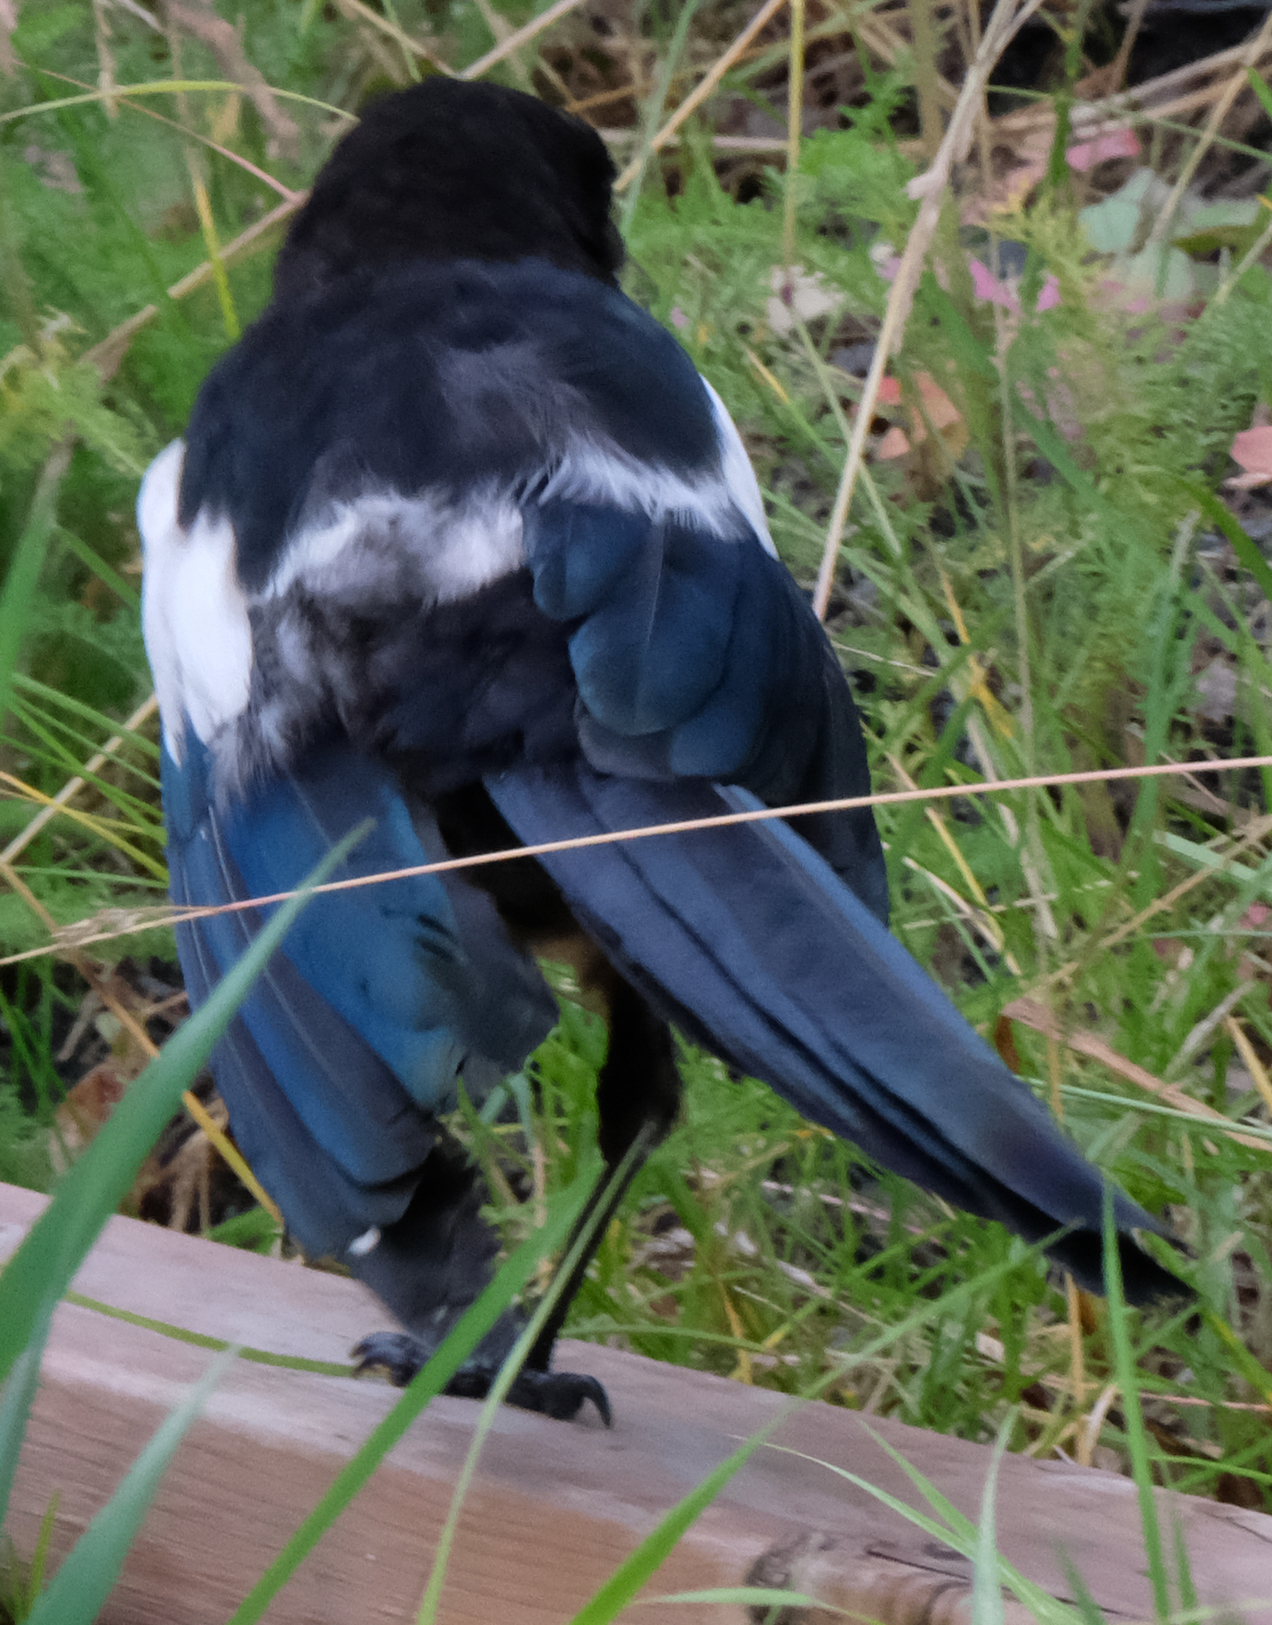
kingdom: Animalia
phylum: Chordata
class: Aves
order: Passeriformes
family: Corvidae
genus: Pica
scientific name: Pica hudsonia
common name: Black-billed magpie
